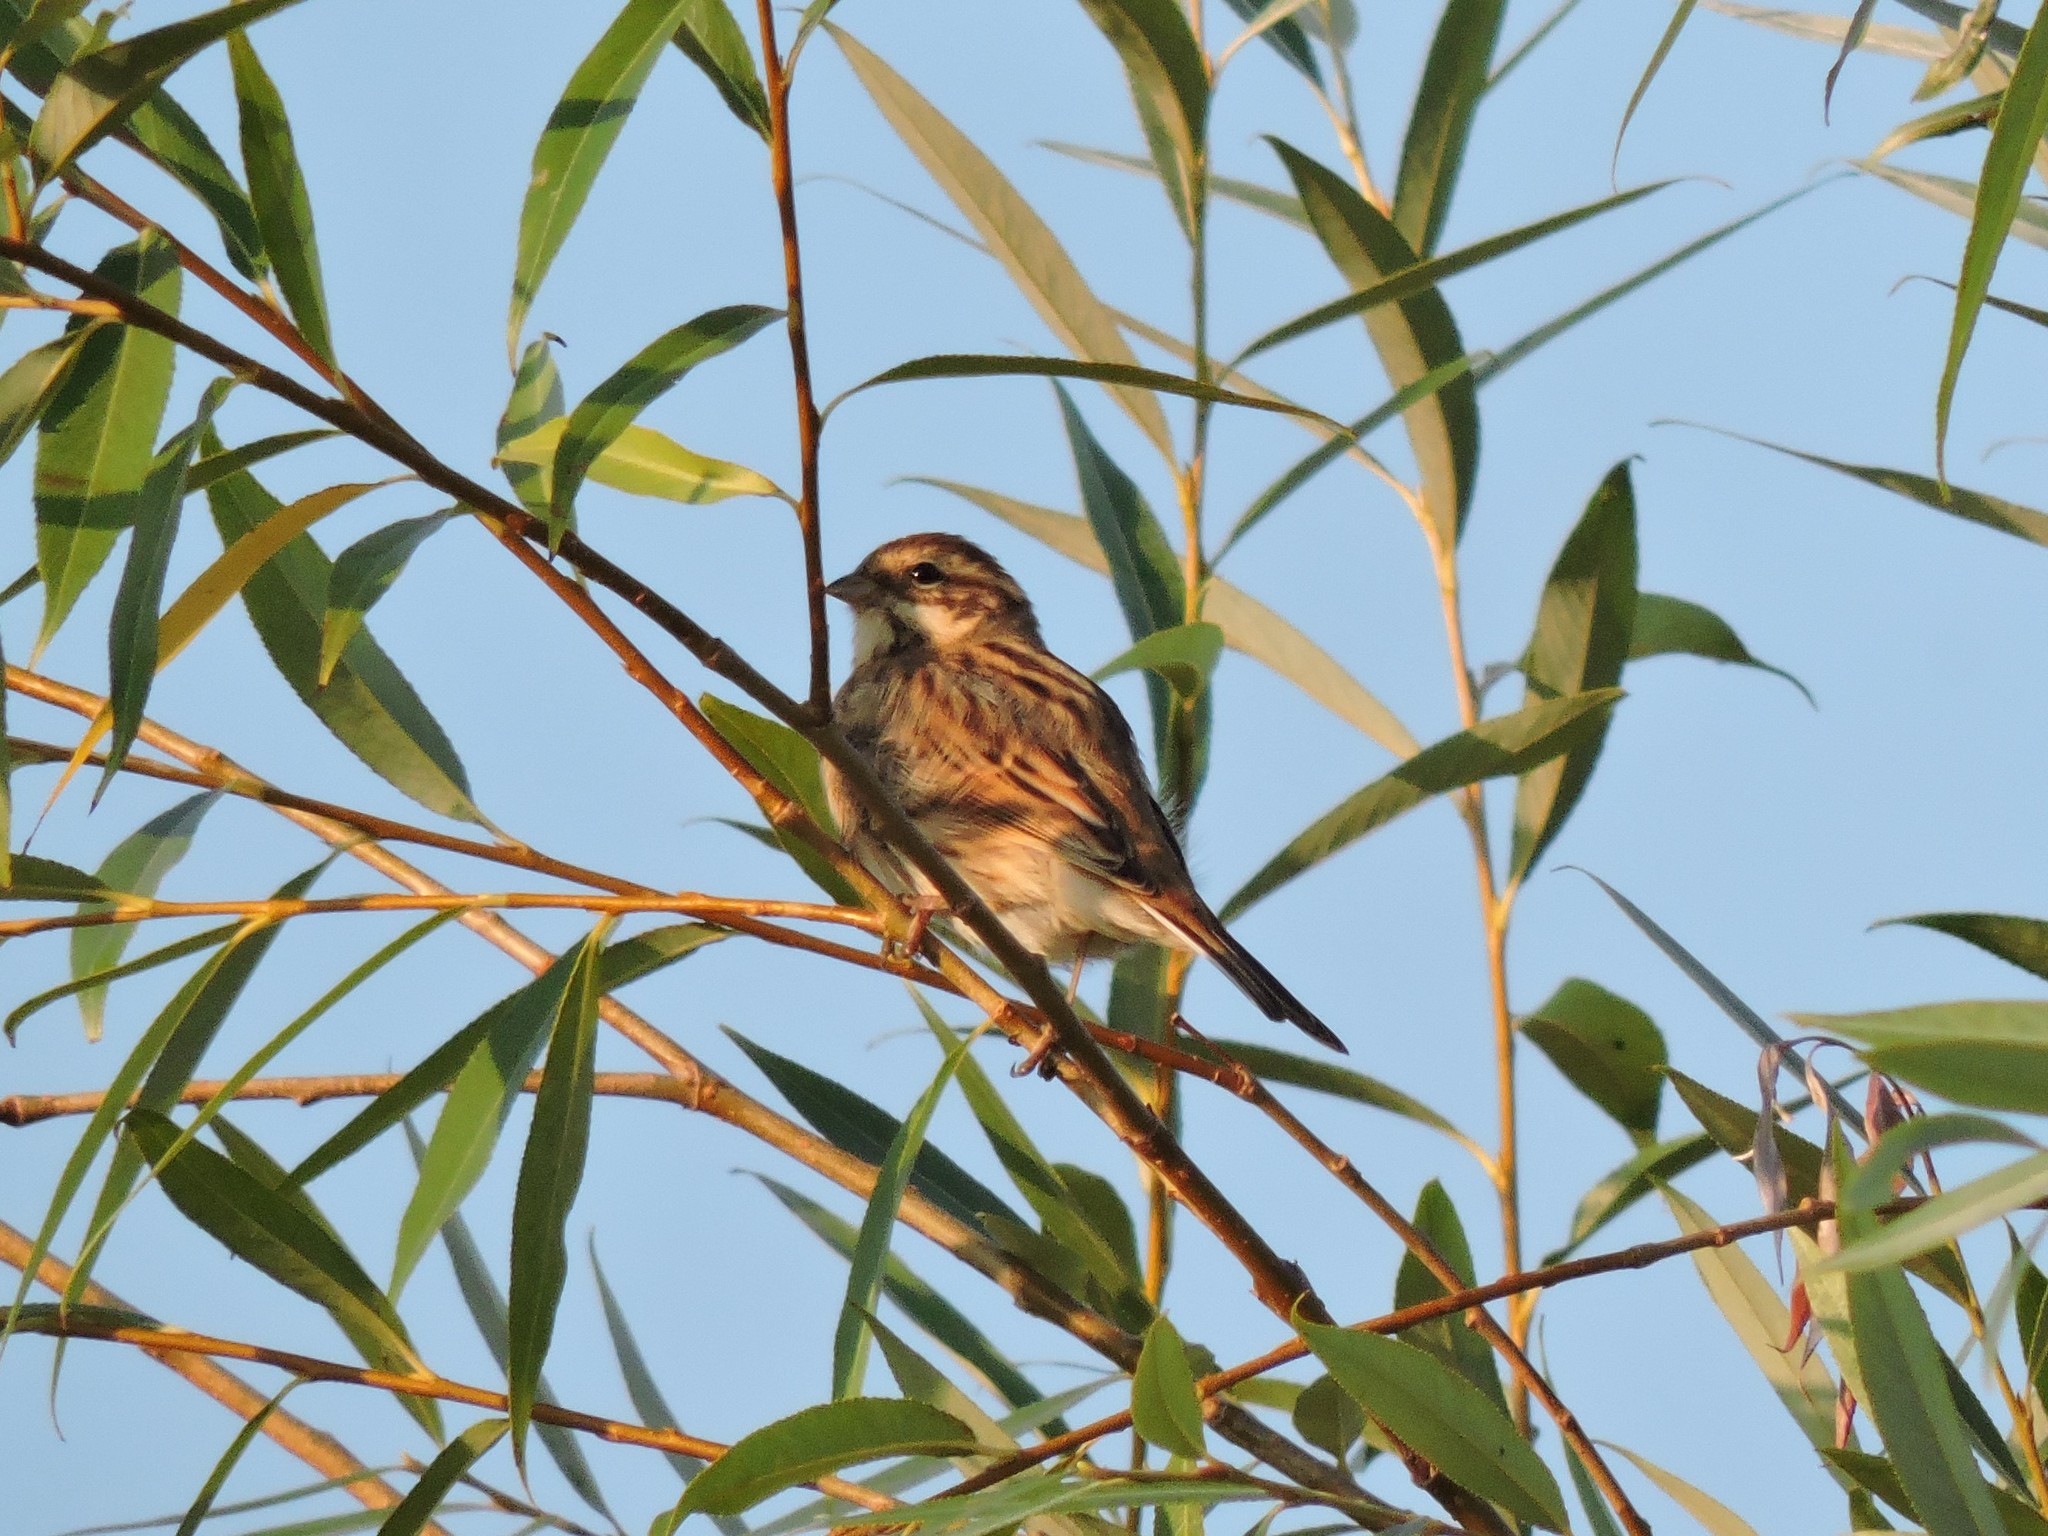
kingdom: Animalia
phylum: Chordata
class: Aves
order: Passeriformes
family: Emberizidae
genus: Emberiza
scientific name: Emberiza schoeniclus
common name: Reed bunting
